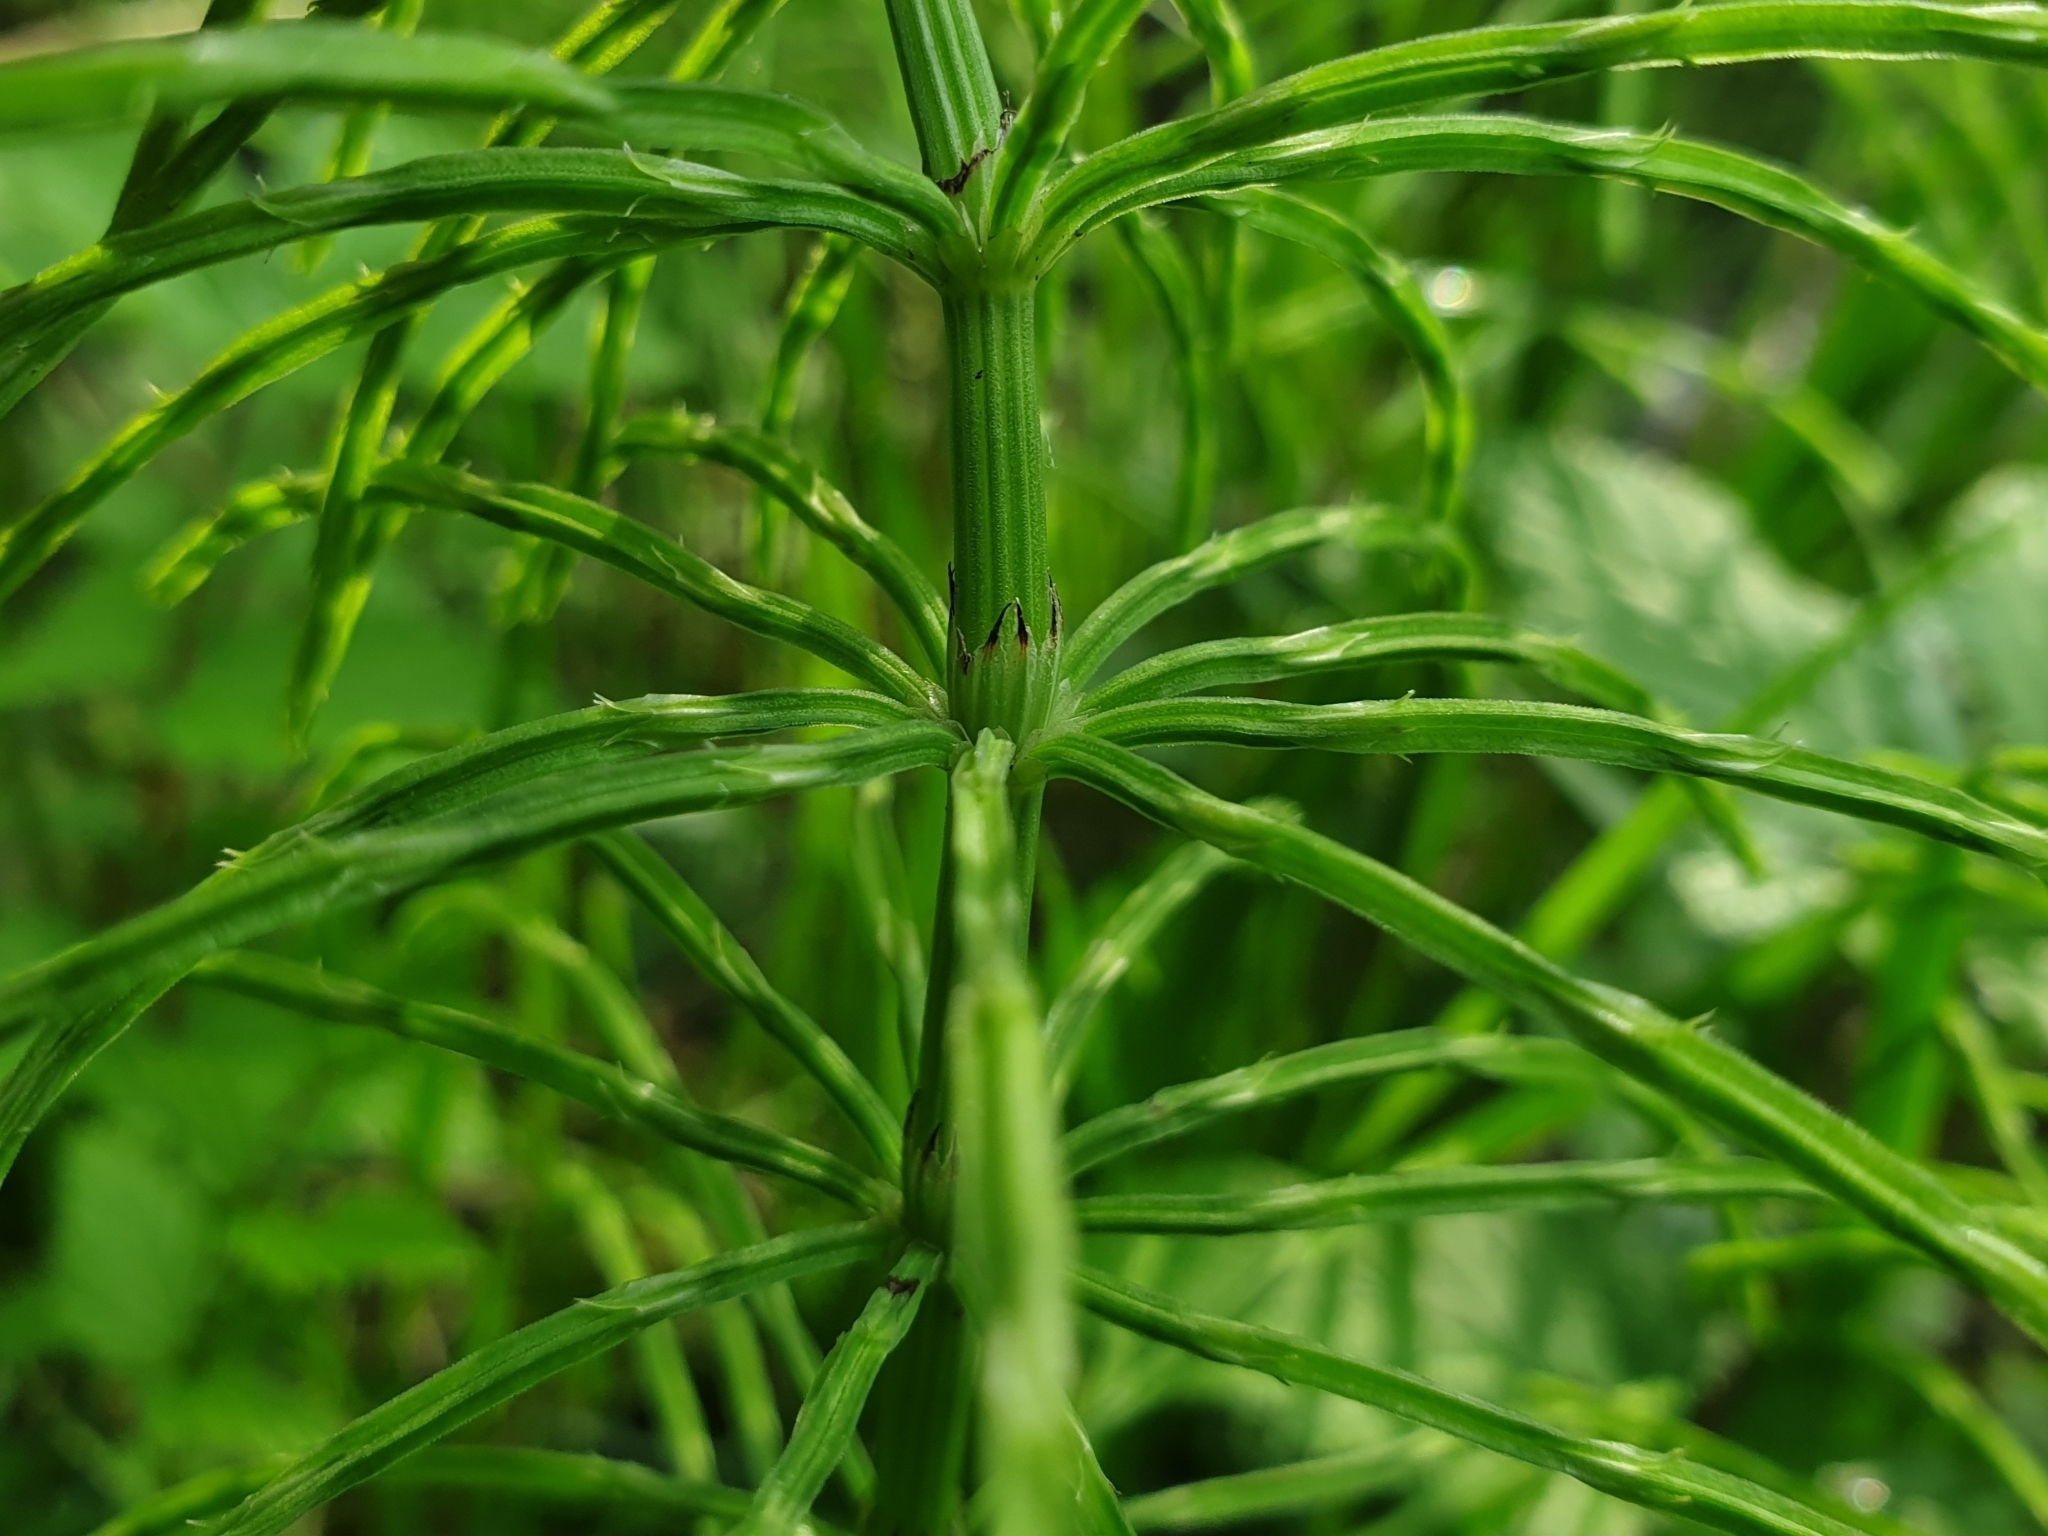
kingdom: Plantae
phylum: Tracheophyta
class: Polypodiopsida
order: Equisetales
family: Equisetaceae
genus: Equisetum
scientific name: Equisetum arvense
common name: Field horsetail
